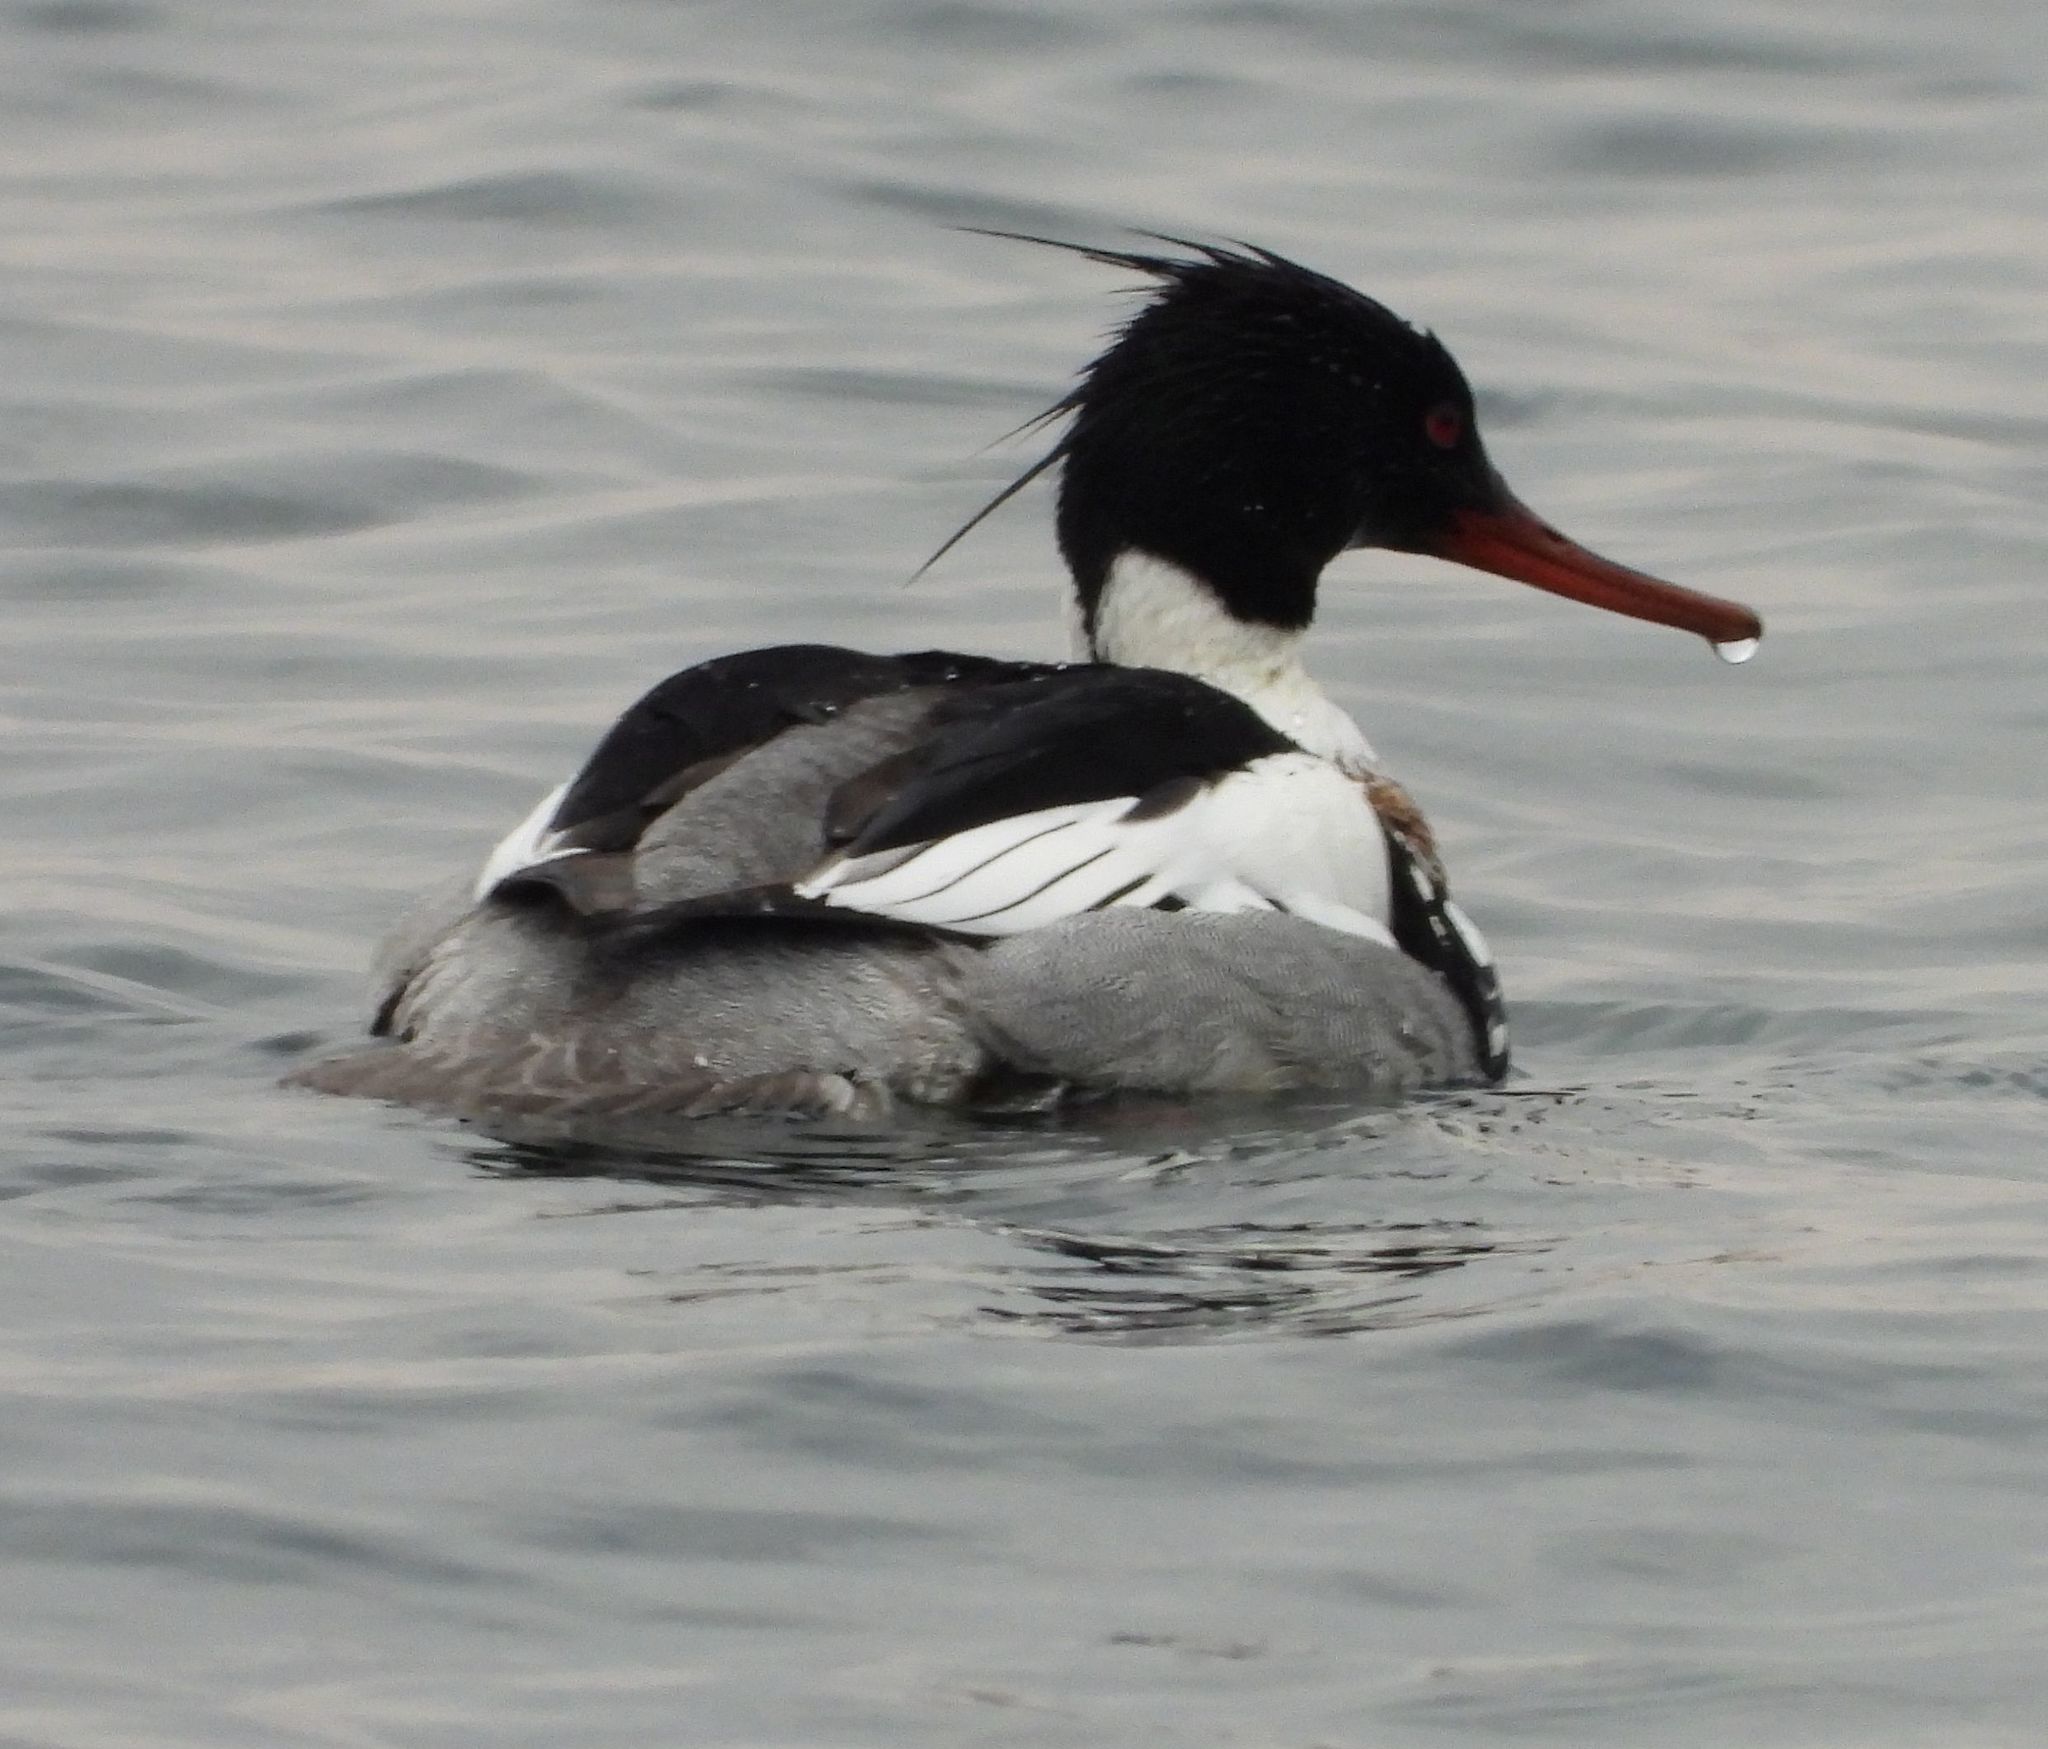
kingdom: Animalia
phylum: Chordata
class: Aves
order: Anseriformes
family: Anatidae
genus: Mergus
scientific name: Mergus serrator
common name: Red-breasted merganser
